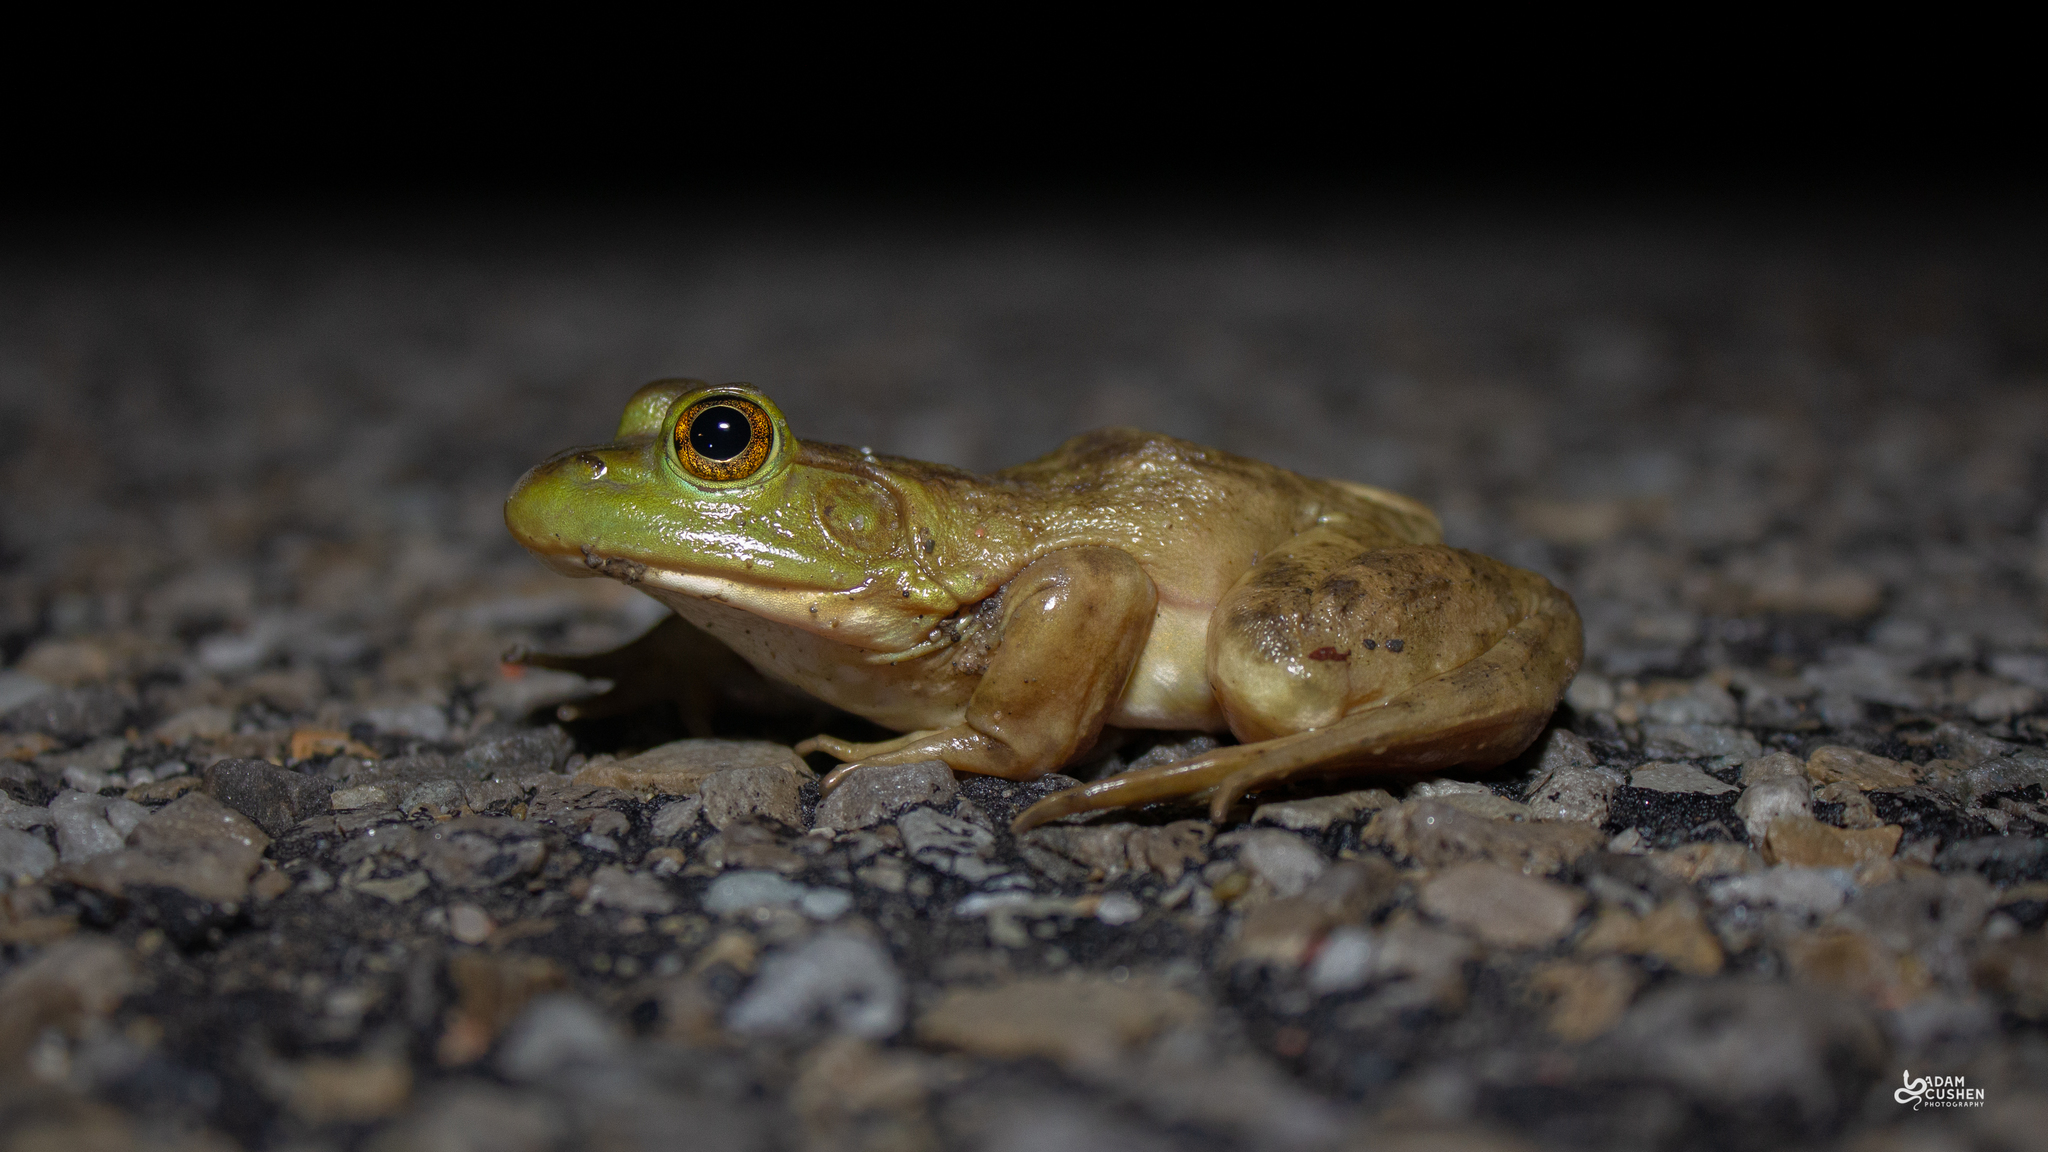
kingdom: Animalia
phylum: Chordata
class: Amphibia
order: Anura
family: Ranidae
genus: Lithobates
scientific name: Lithobates catesbeianus
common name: American bullfrog
